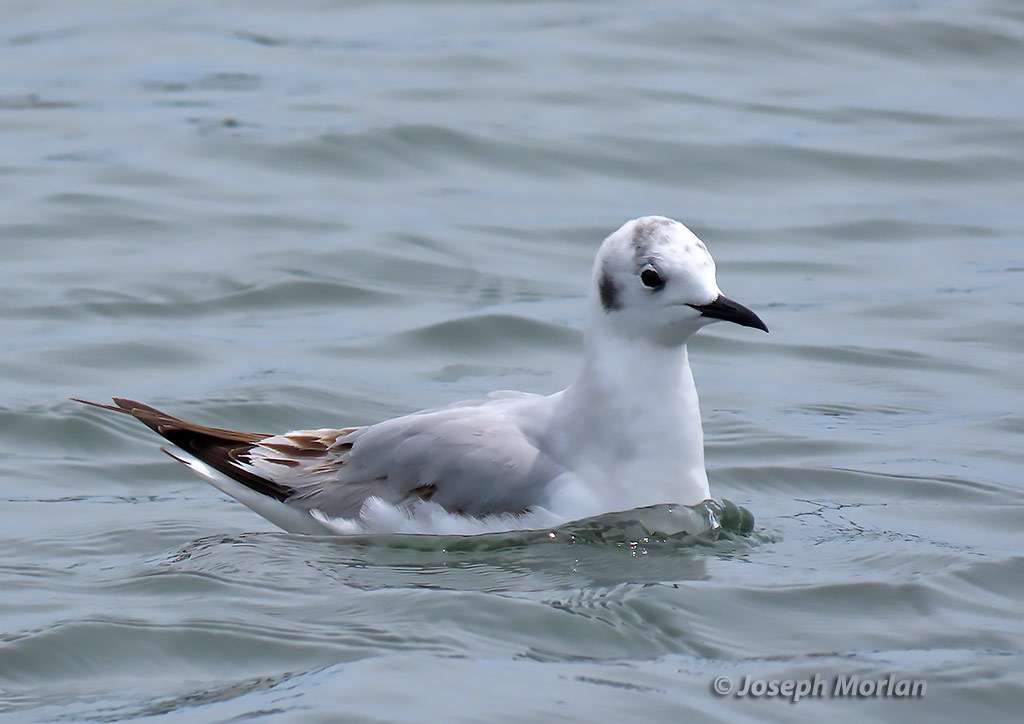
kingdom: Animalia
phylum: Chordata
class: Aves
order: Charadriiformes
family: Laridae
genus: Chroicocephalus
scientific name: Chroicocephalus philadelphia
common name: Bonaparte's gull
